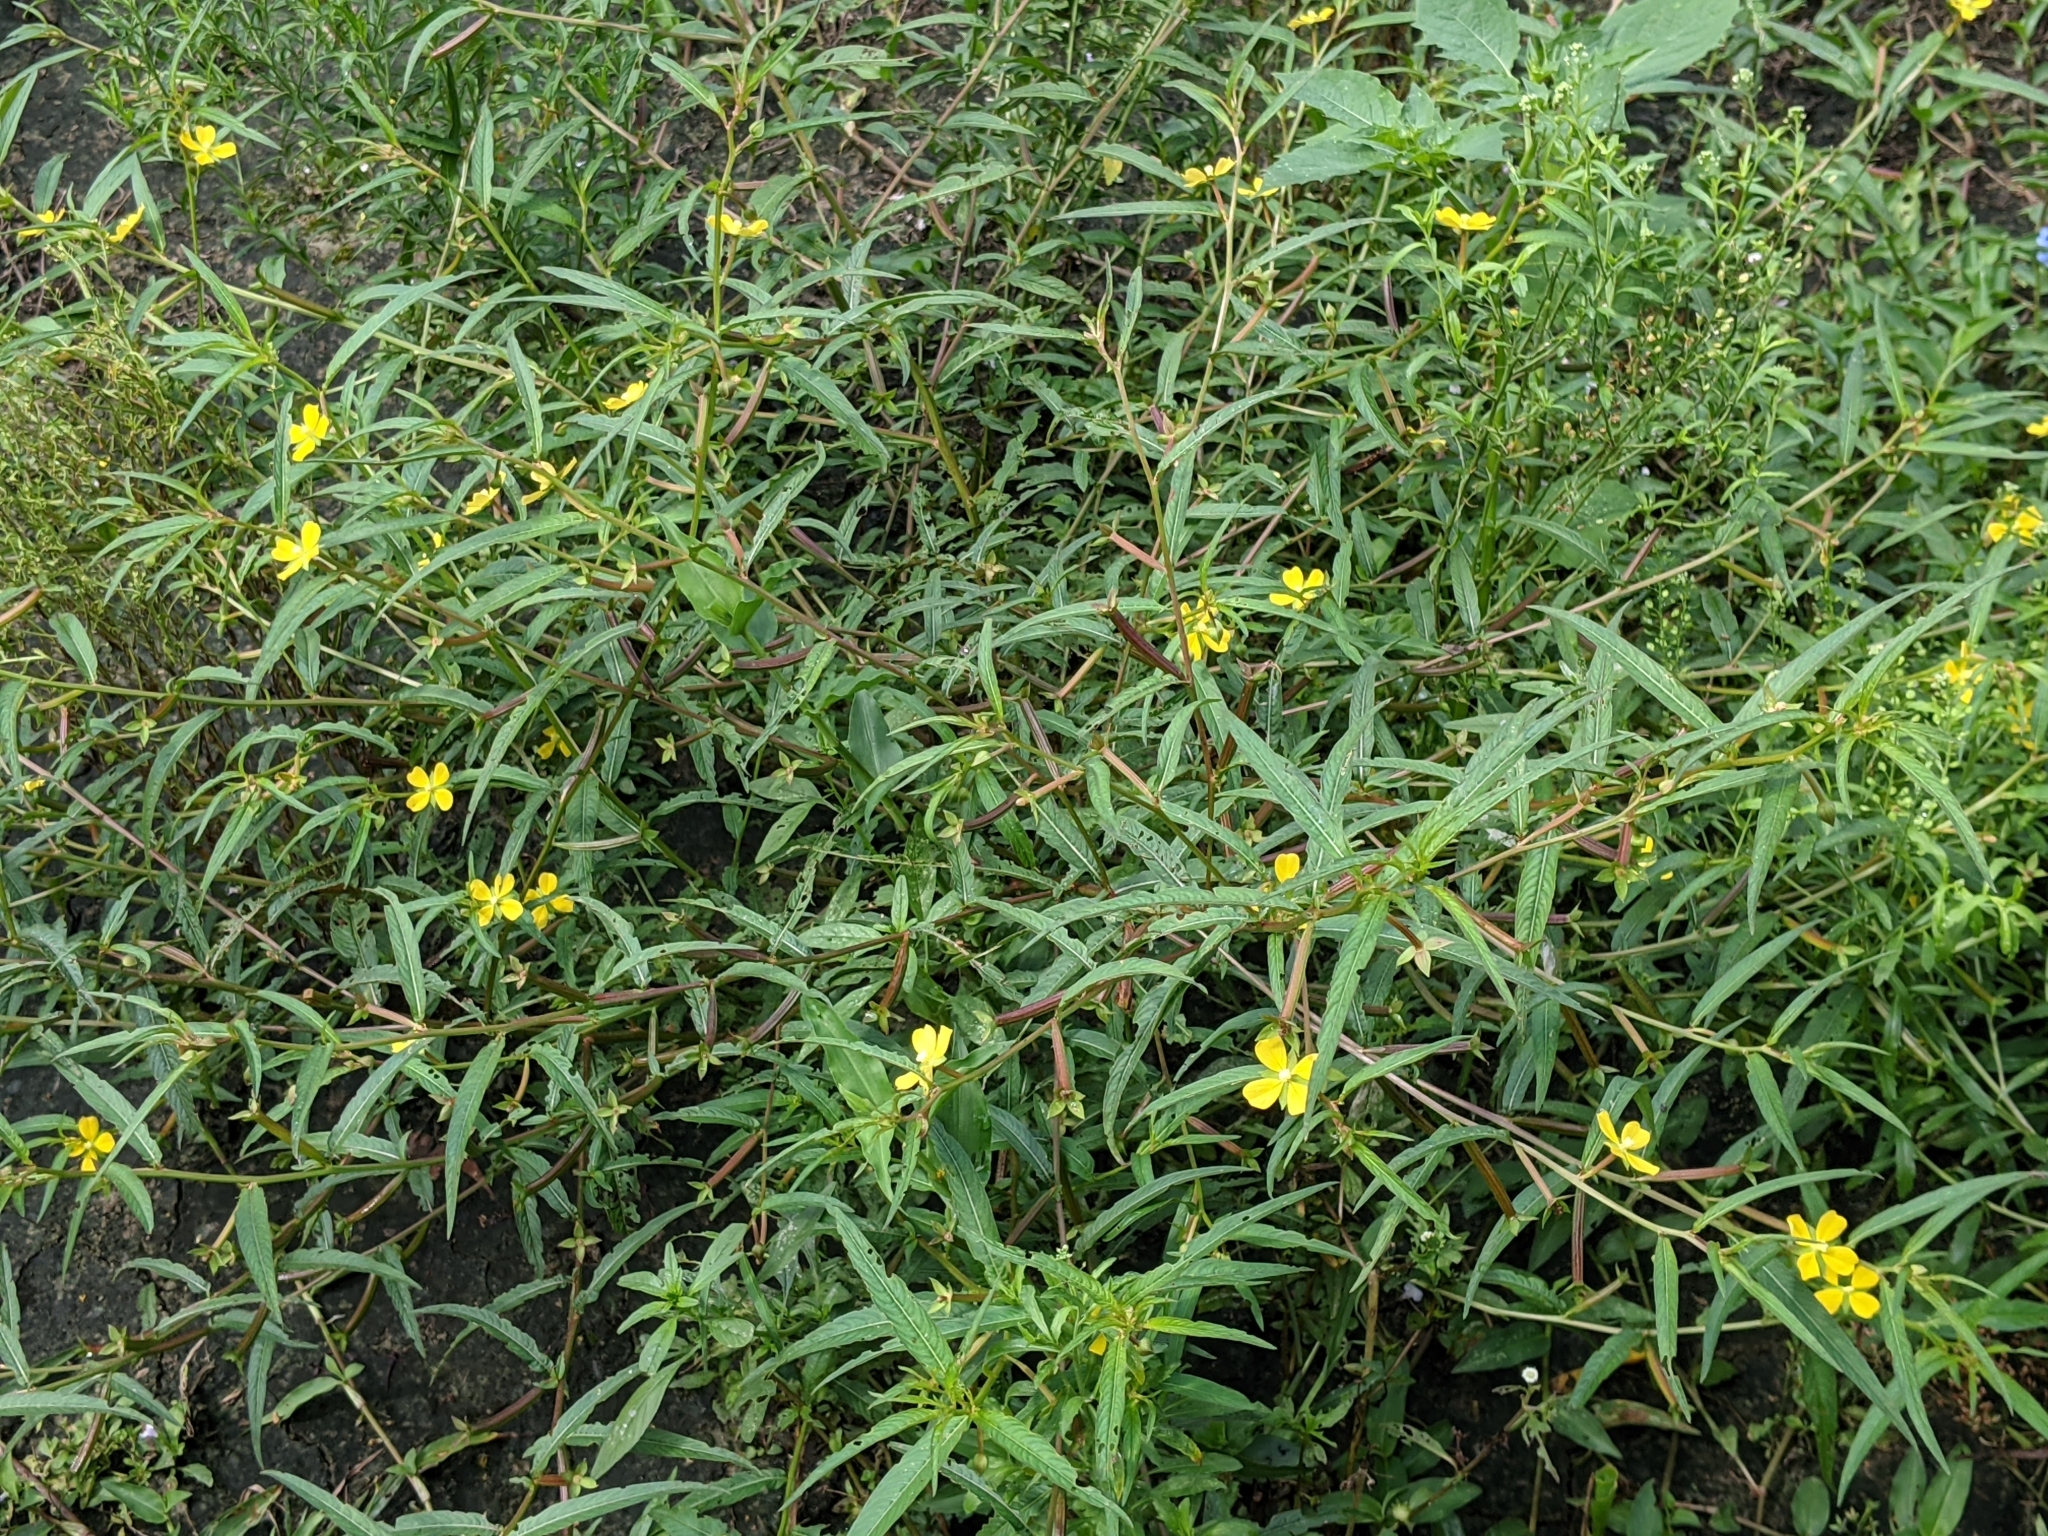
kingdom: Plantae
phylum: Tracheophyta
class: Magnoliopsida
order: Myrtales
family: Onagraceae
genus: Ludwigia
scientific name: Ludwigia octovalvis
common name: Water-primrose
